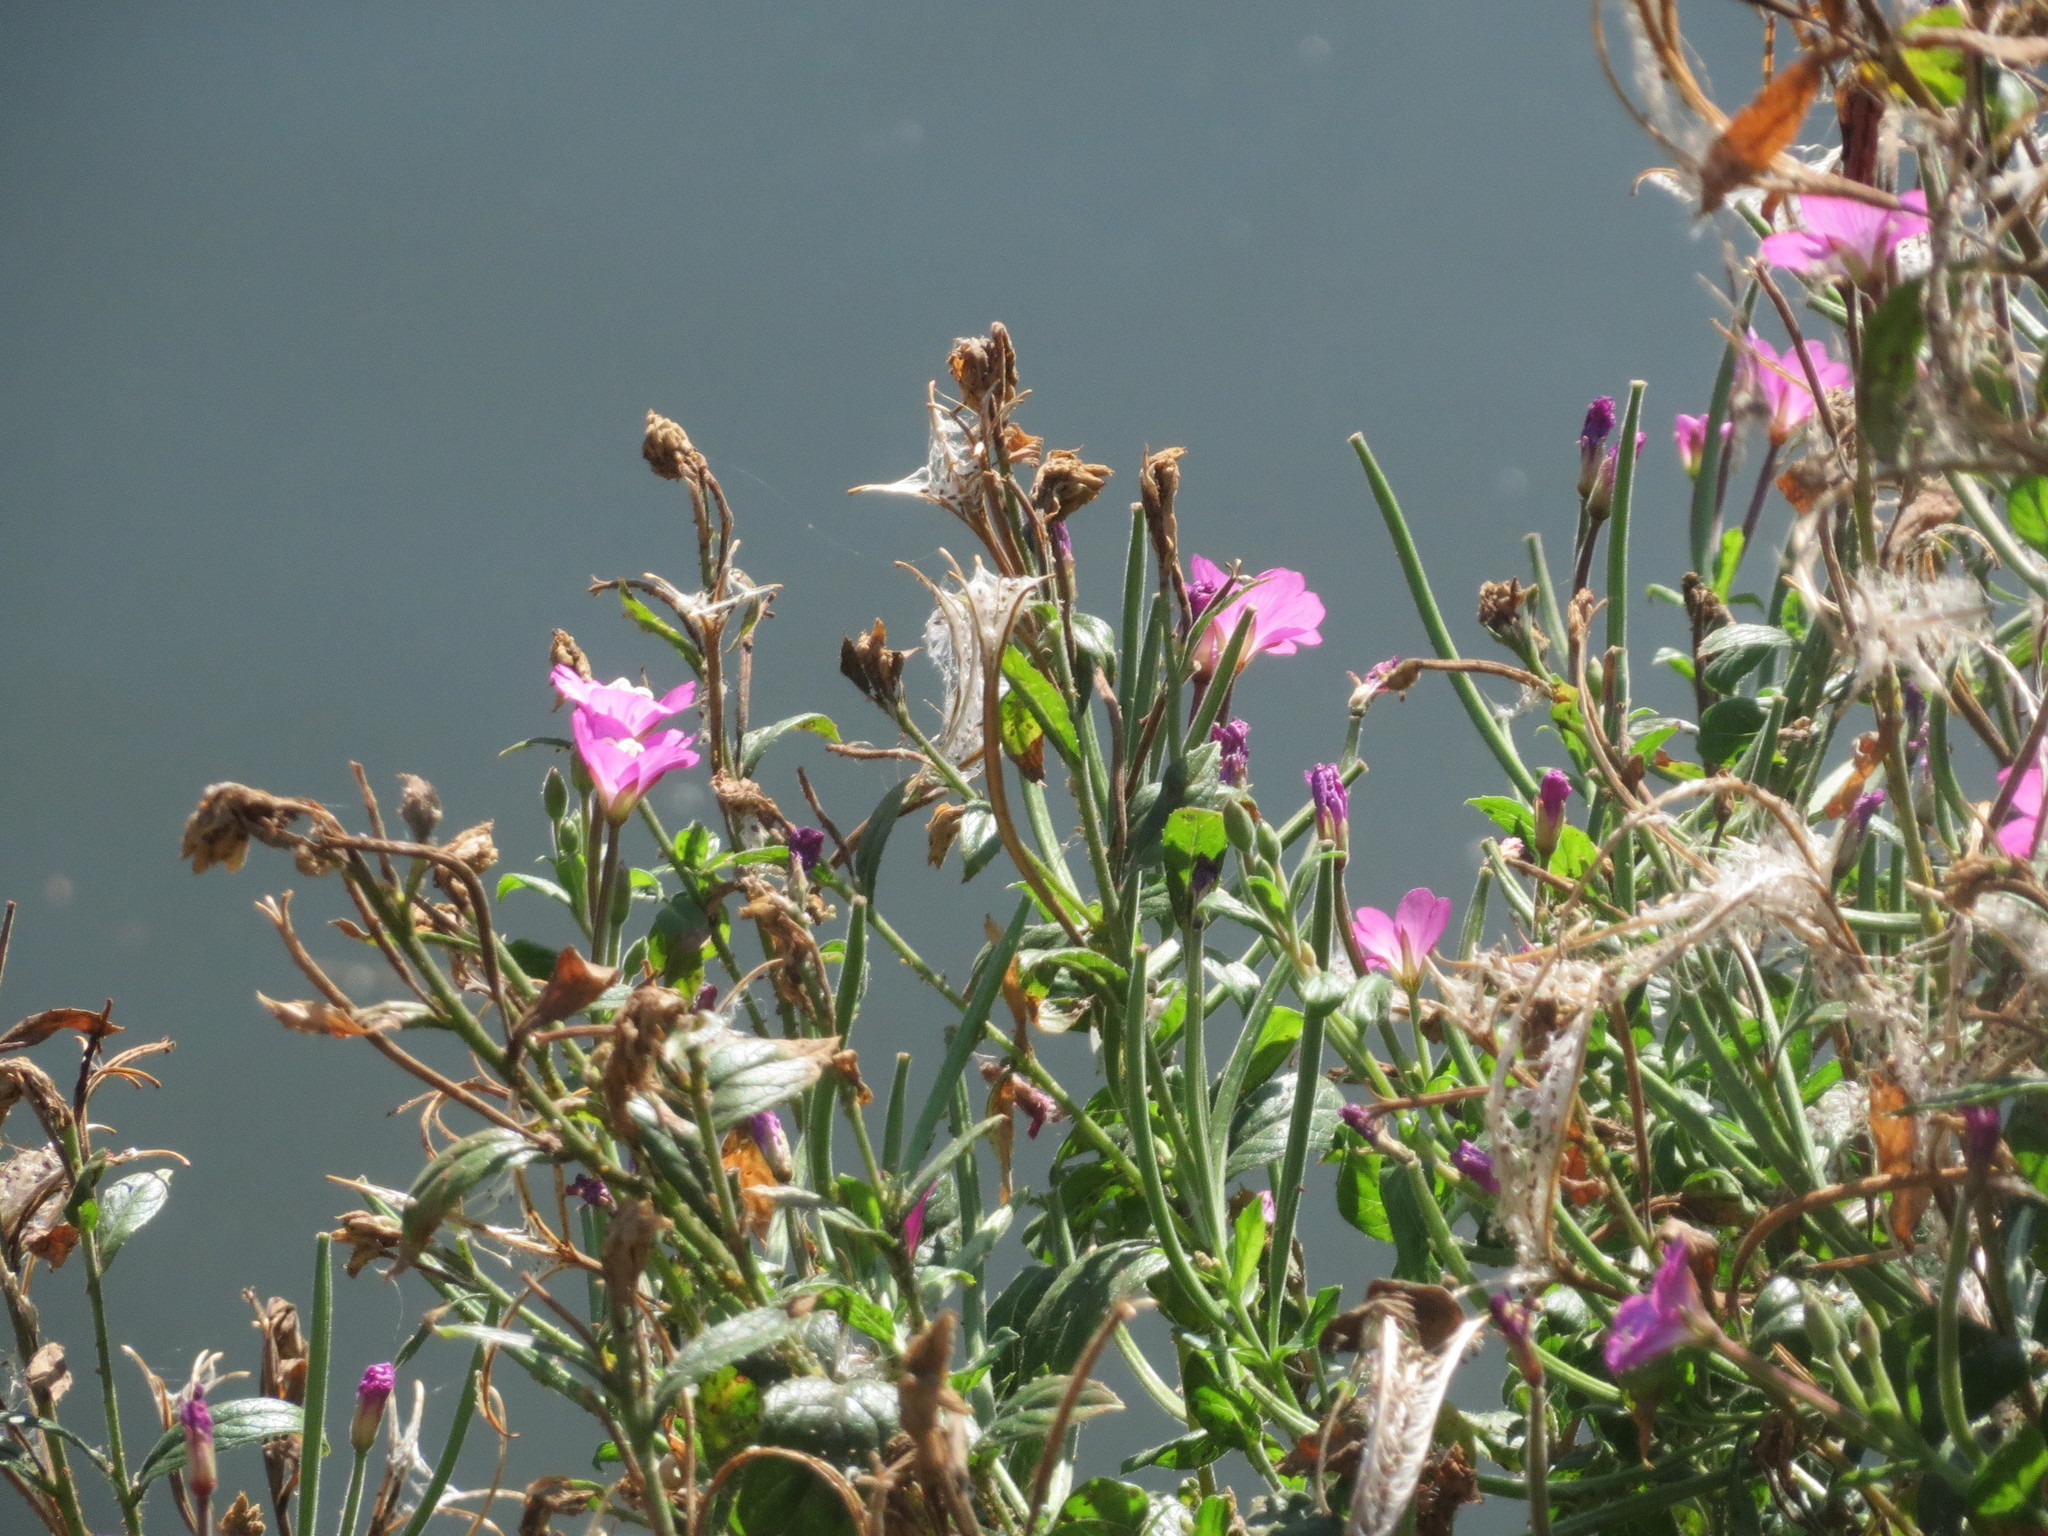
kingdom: Plantae
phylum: Tracheophyta
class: Magnoliopsida
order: Myrtales
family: Onagraceae
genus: Epilobium
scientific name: Epilobium hirsutum
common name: Great willowherb
